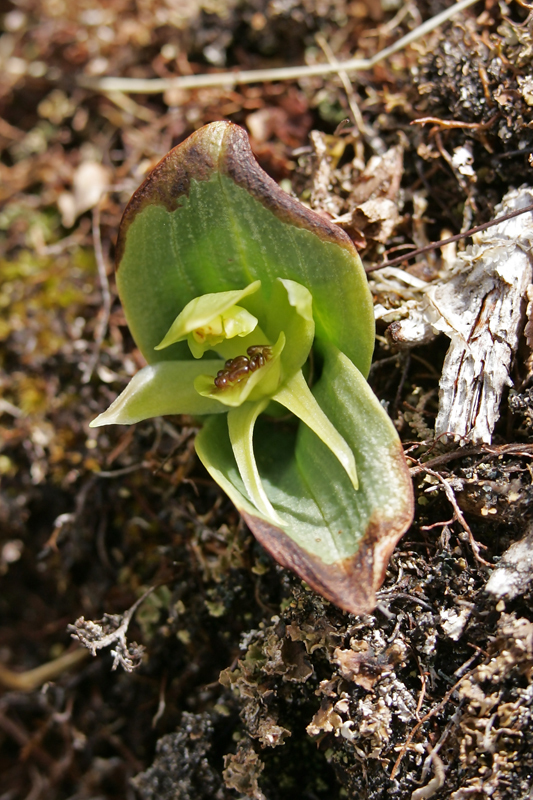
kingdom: Plantae
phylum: Tracheophyta
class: Liliopsida
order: Asparagales
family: Orchidaceae
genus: Chiloglottis
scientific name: Chiloglottis cornuta
